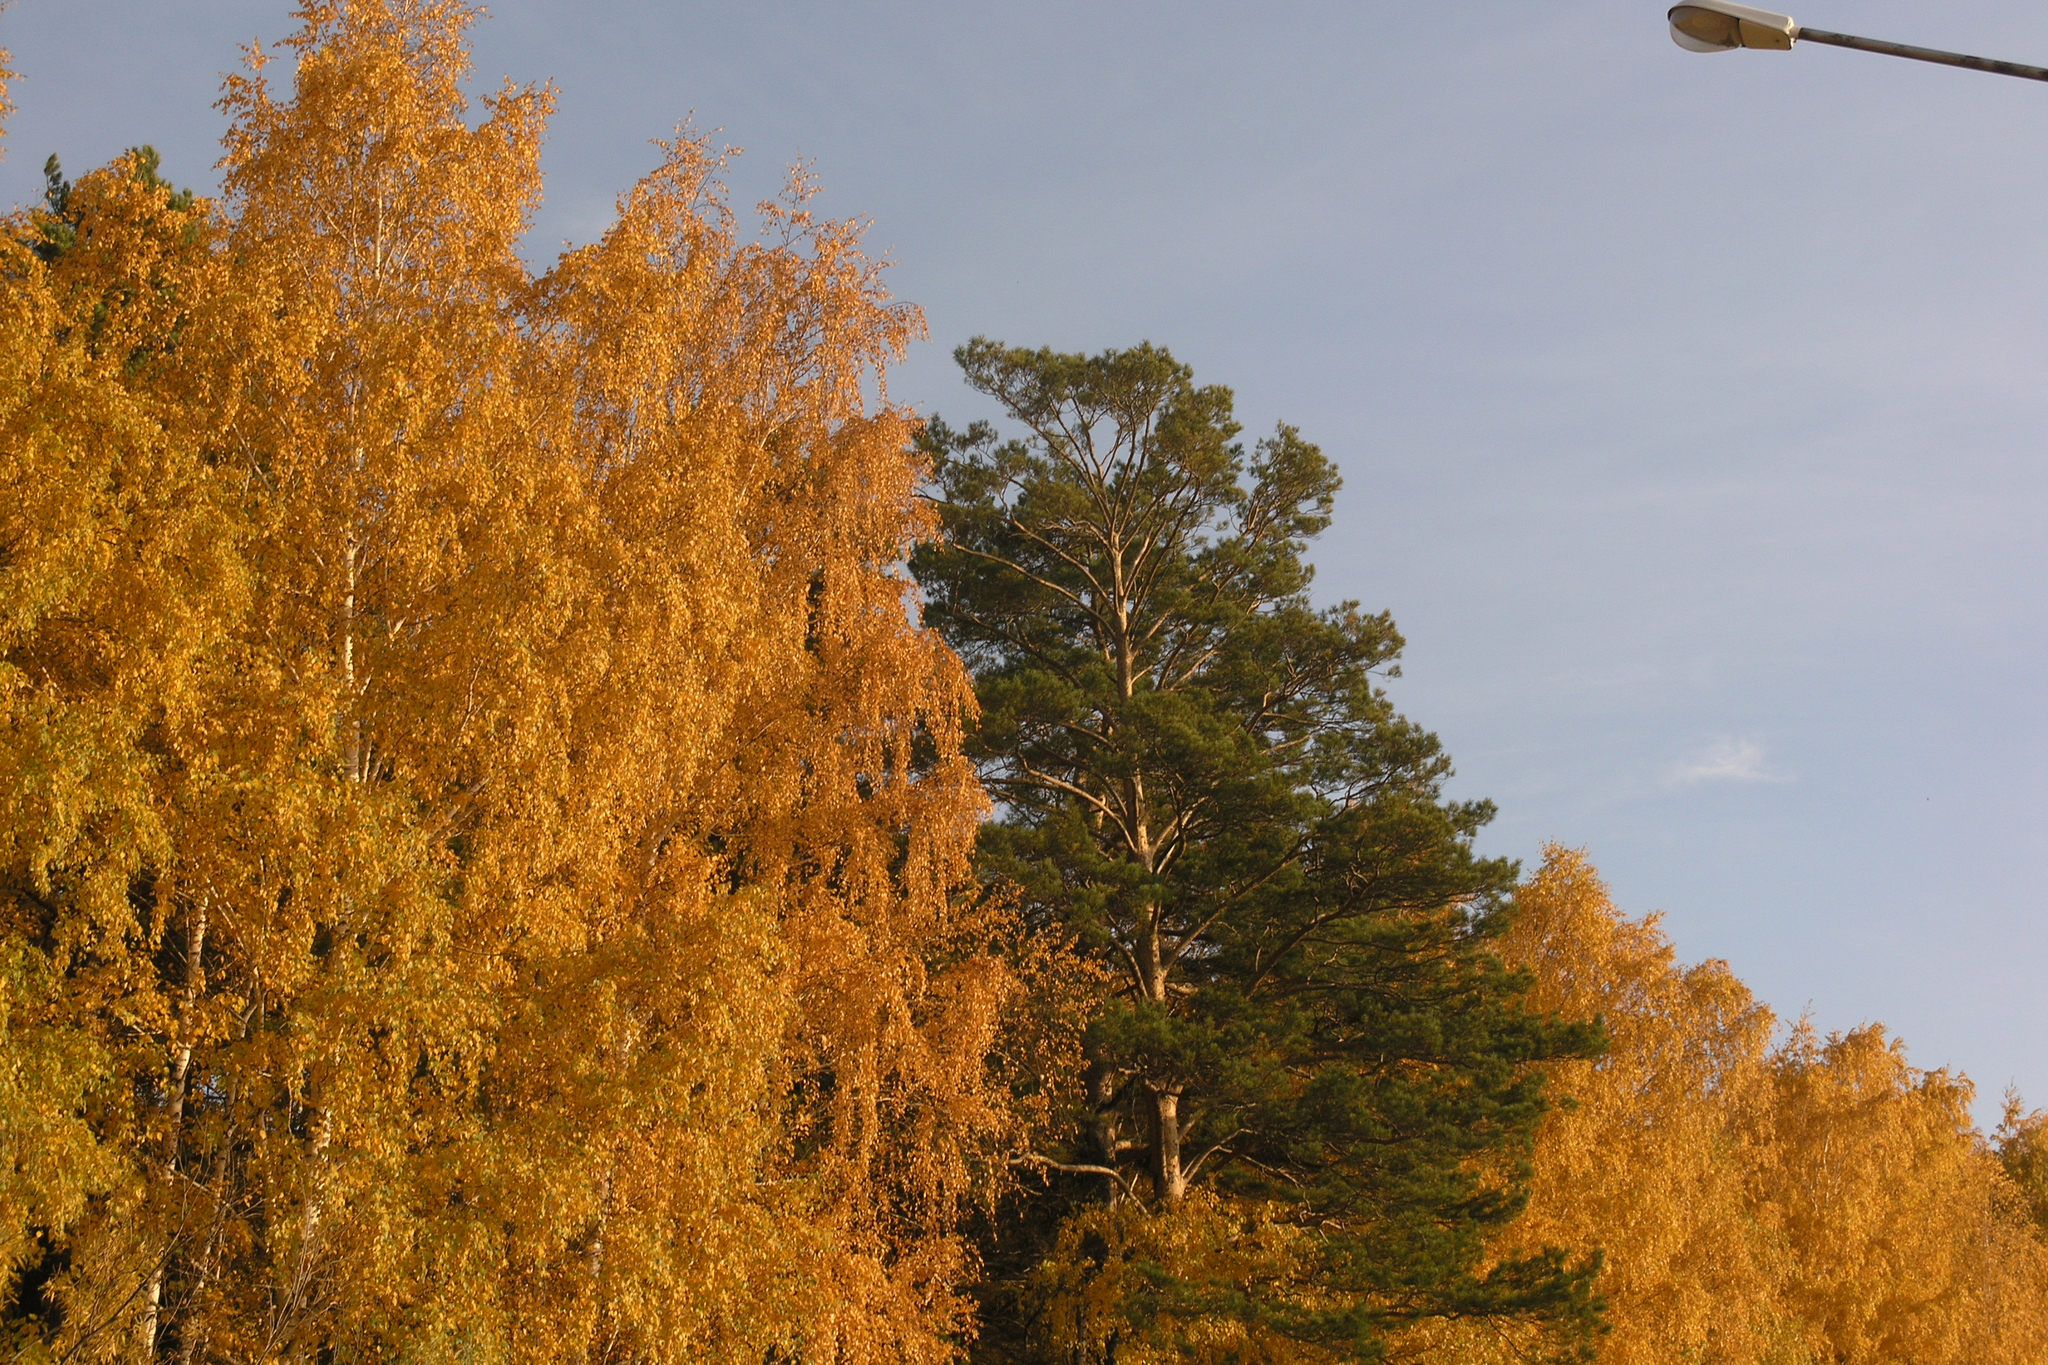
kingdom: Plantae
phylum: Tracheophyta
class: Magnoliopsida
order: Fagales
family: Betulaceae
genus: Betula
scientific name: Betula pendula
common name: Silver birch
